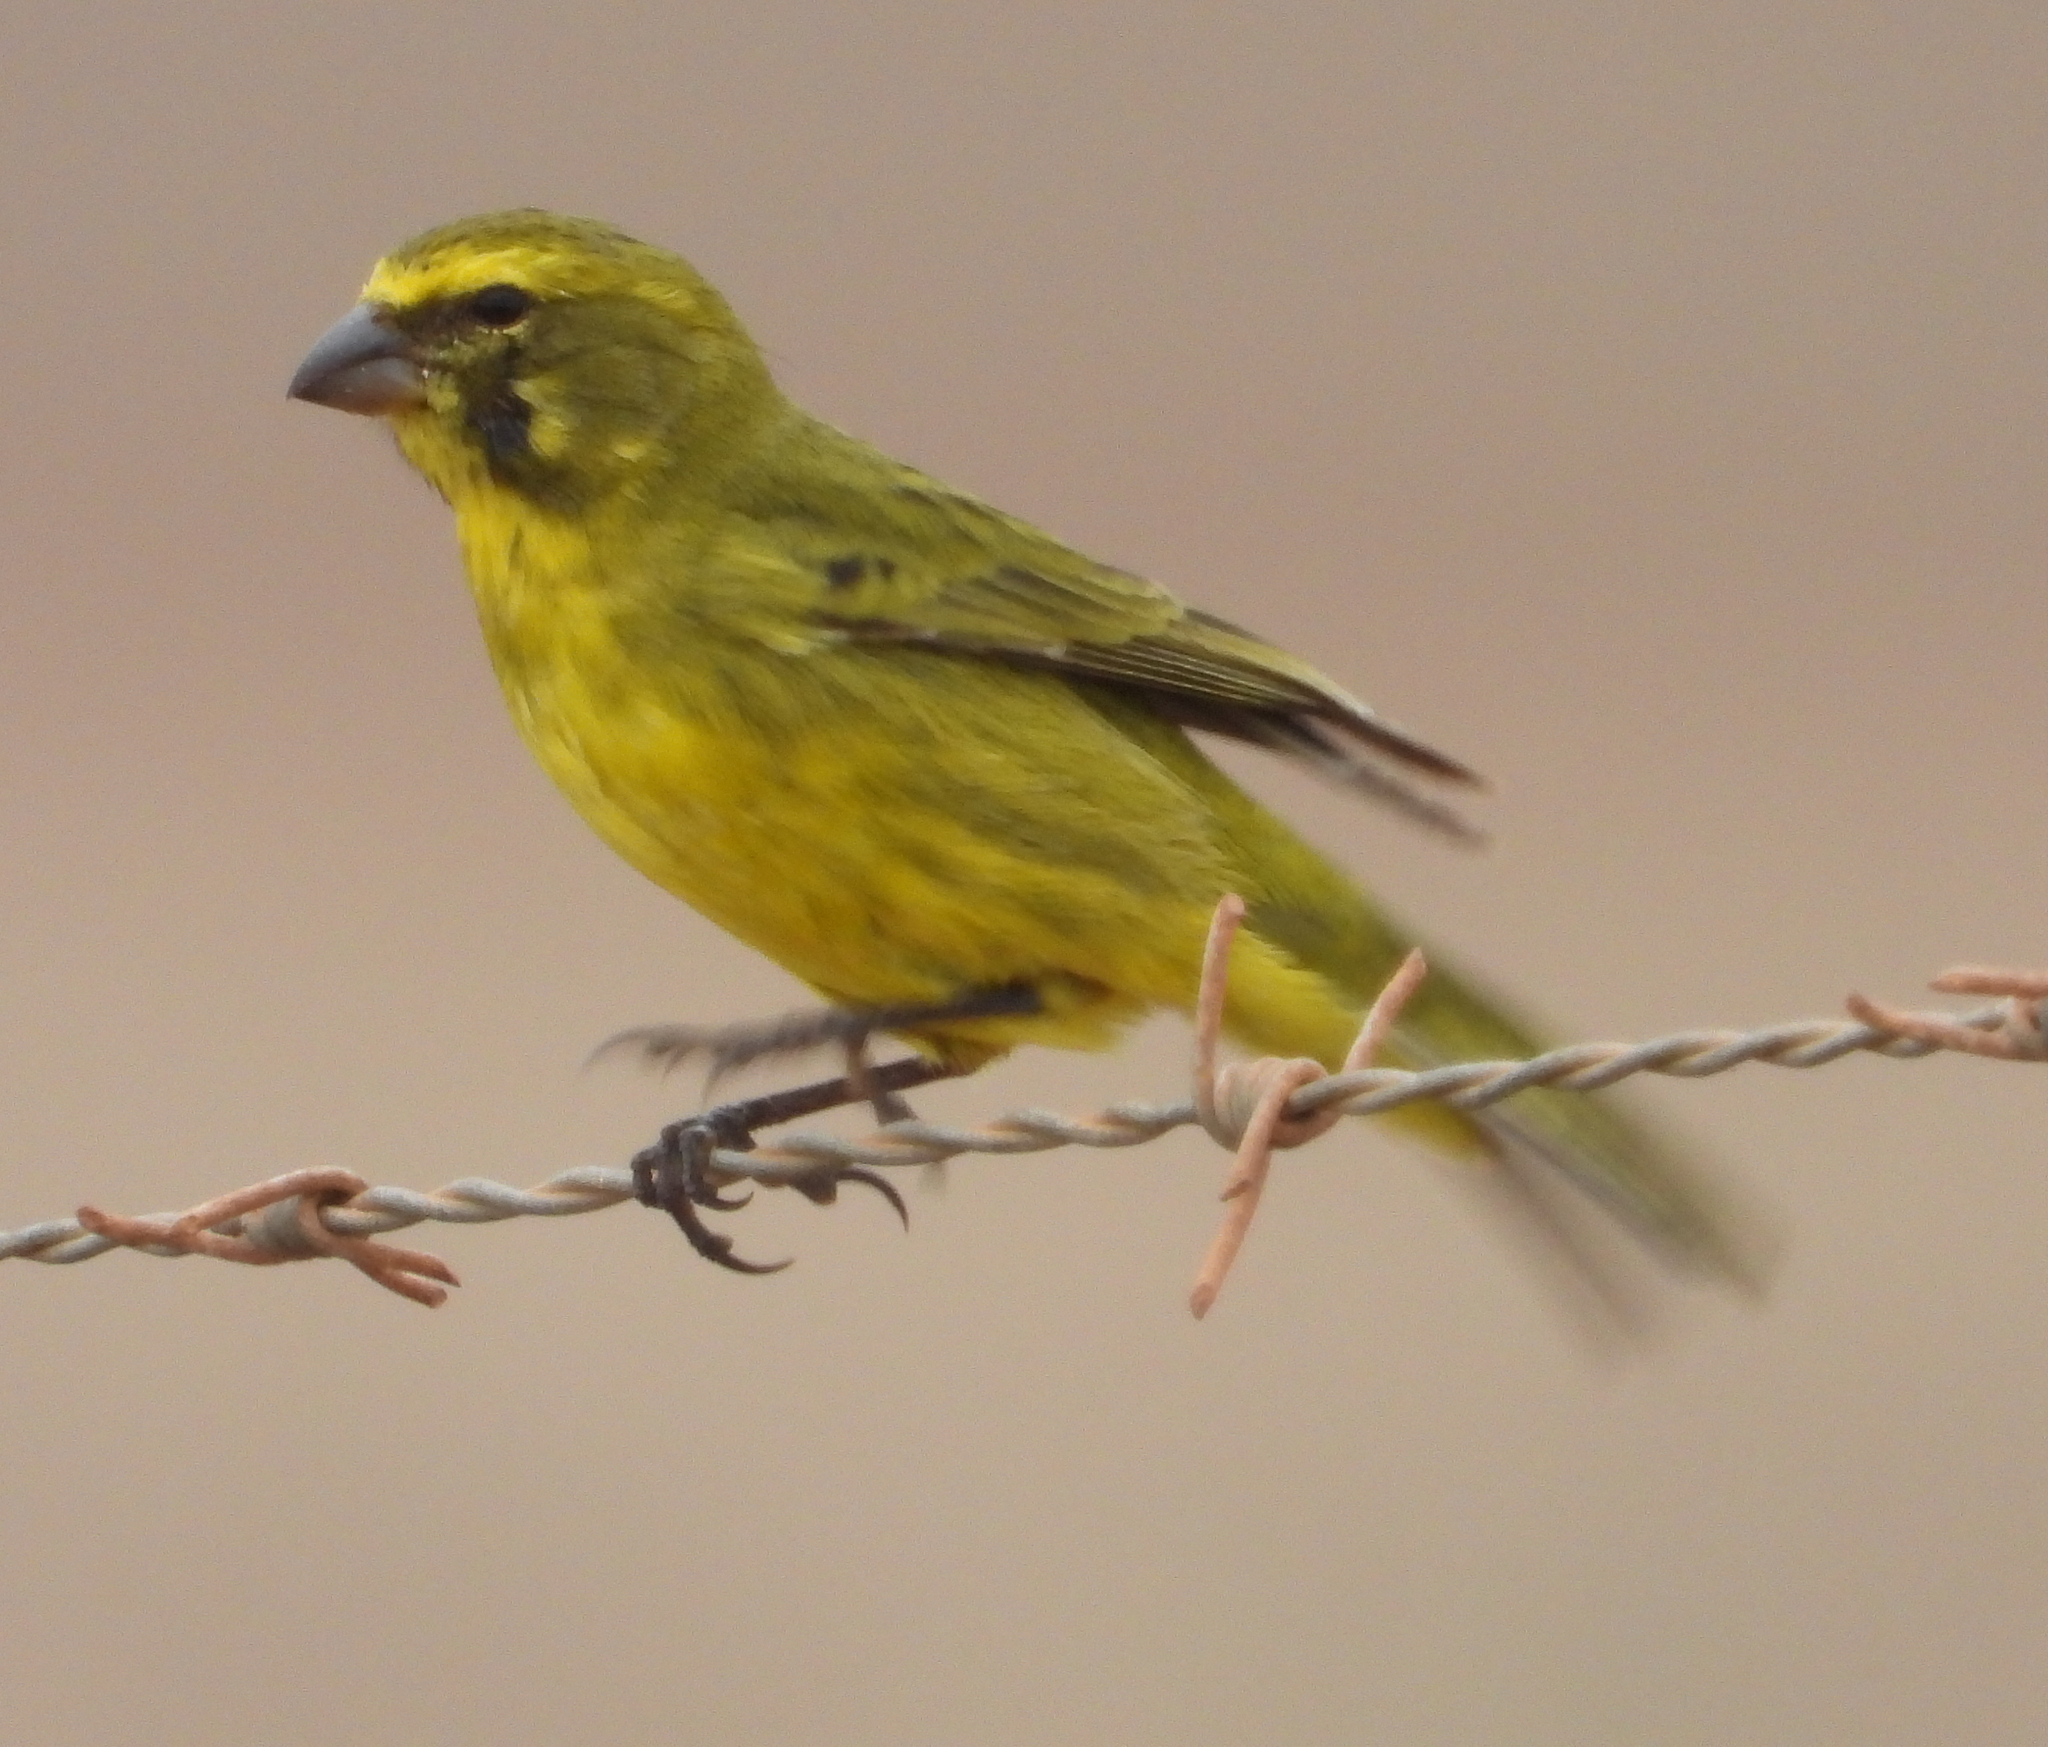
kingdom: Animalia
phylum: Chordata
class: Aves
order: Passeriformes
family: Fringillidae
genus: Crithagra
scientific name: Crithagra flaviventris
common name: Yellow canary
